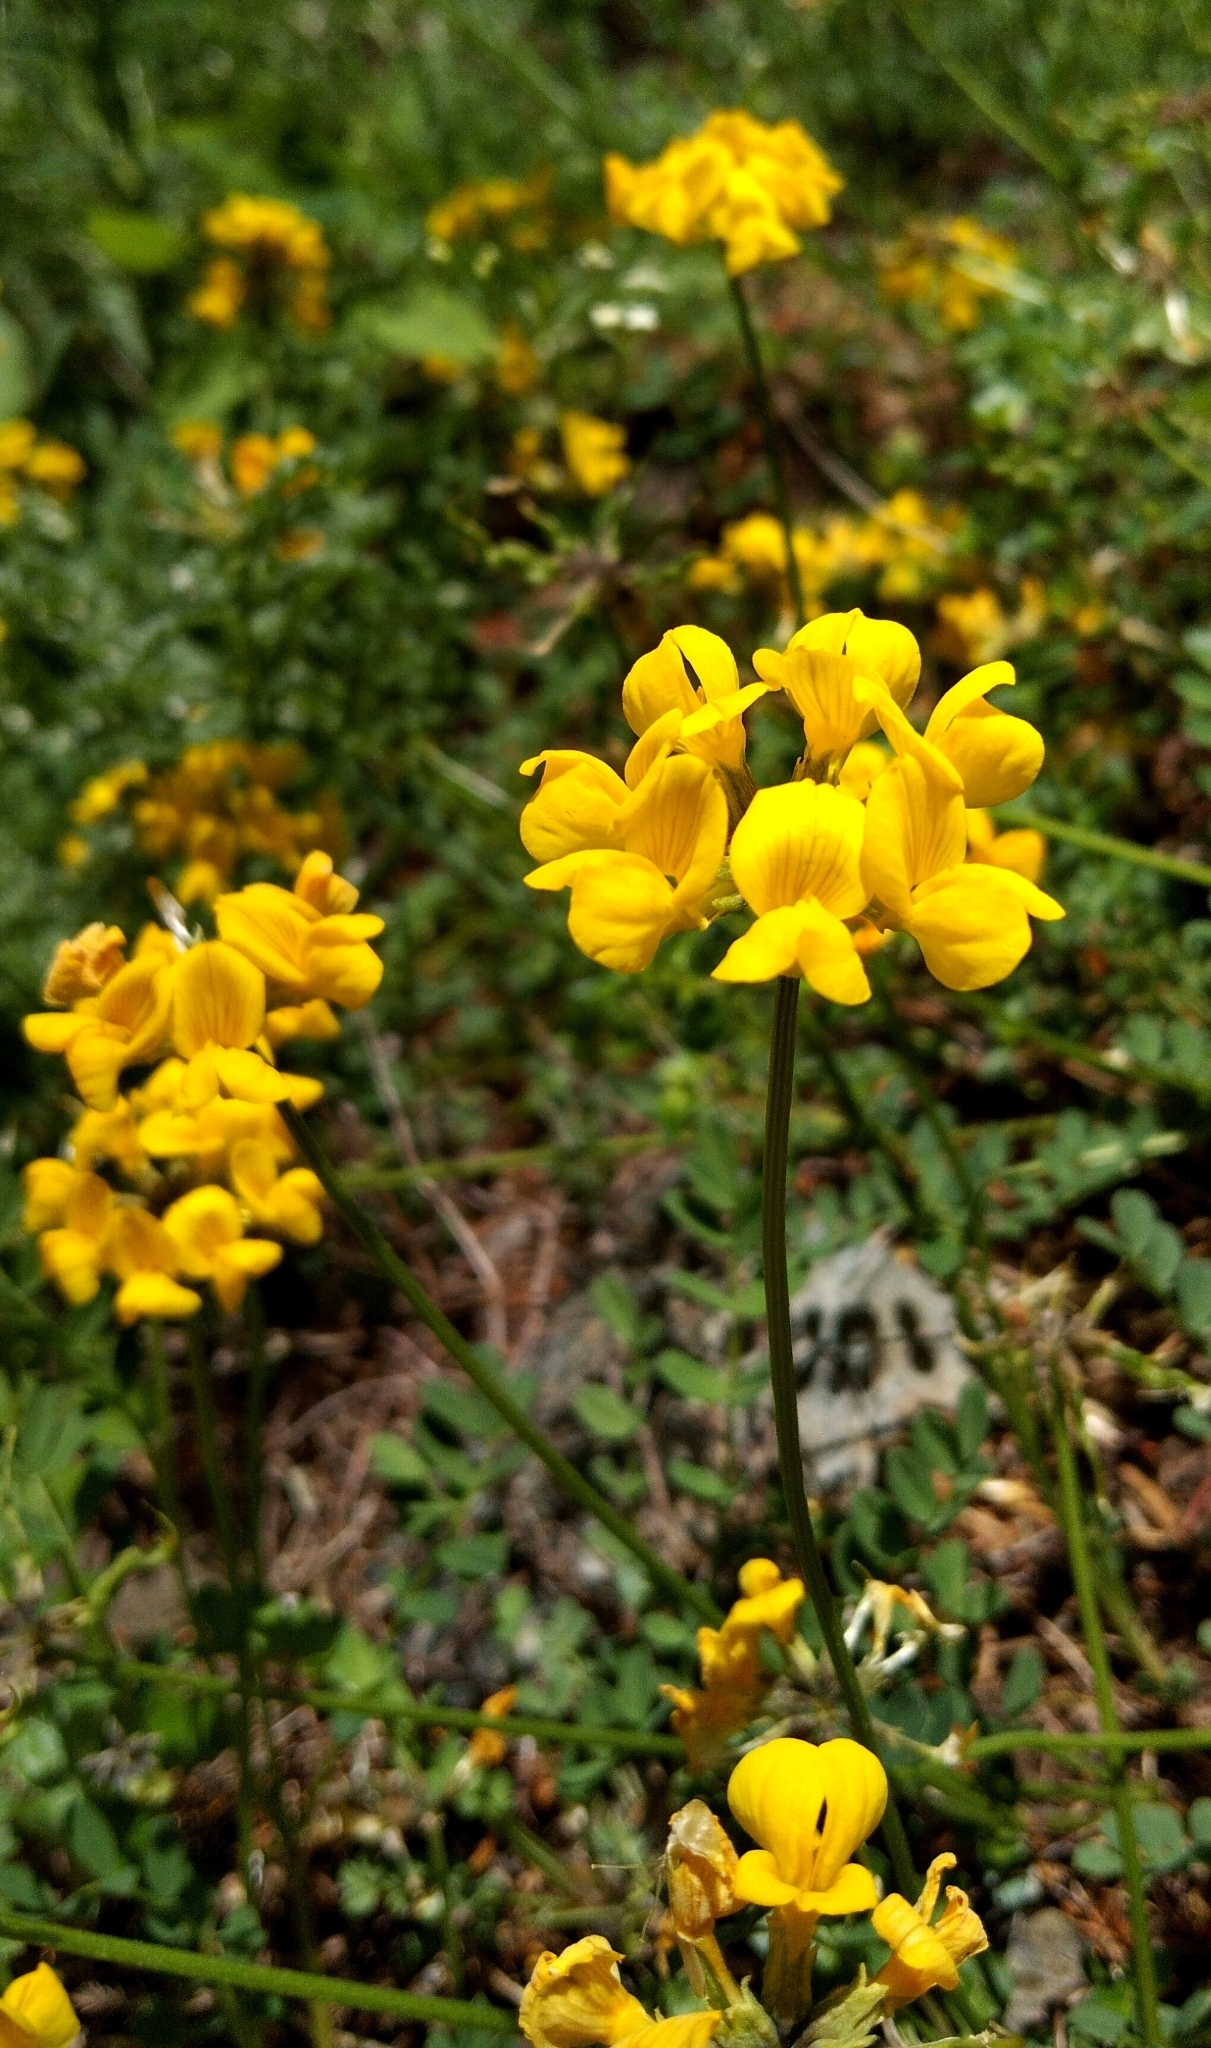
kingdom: Plantae
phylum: Tracheophyta
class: Magnoliopsida
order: Fabales
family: Fabaceae
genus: Hippocrepis
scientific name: Hippocrepis comosa
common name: Horseshoe vetch
